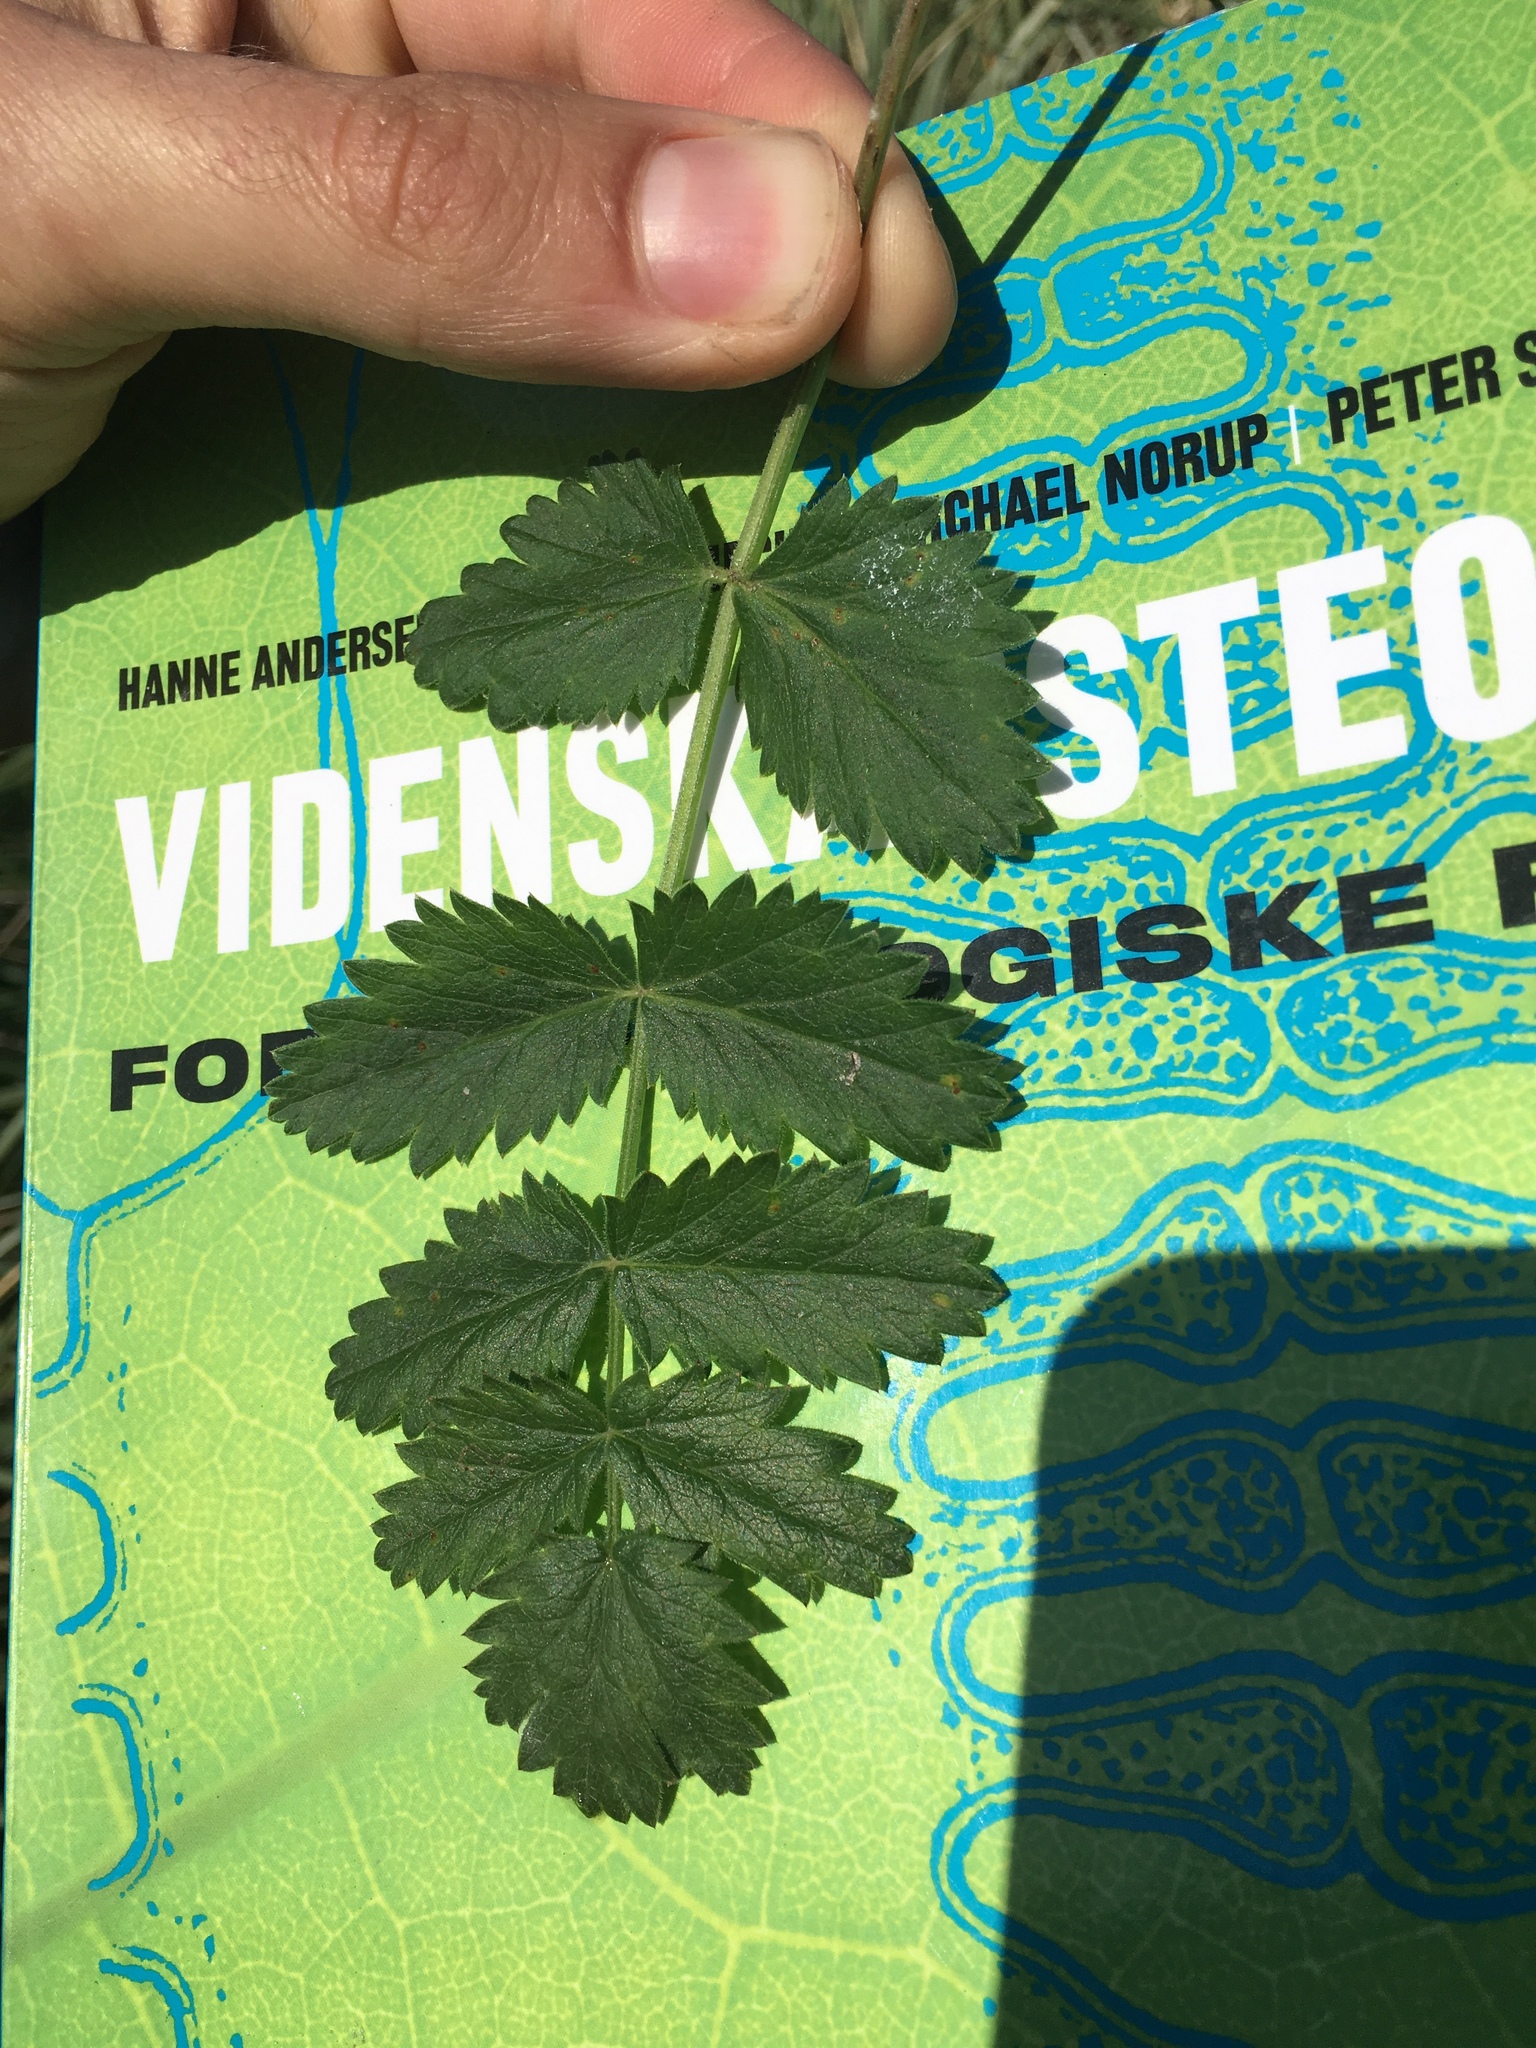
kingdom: Plantae
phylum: Tracheophyta
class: Magnoliopsida
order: Apiales
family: Apiaceae
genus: Pimpinella
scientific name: Pimpinella saxifraga
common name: Burnet-saxifrage
